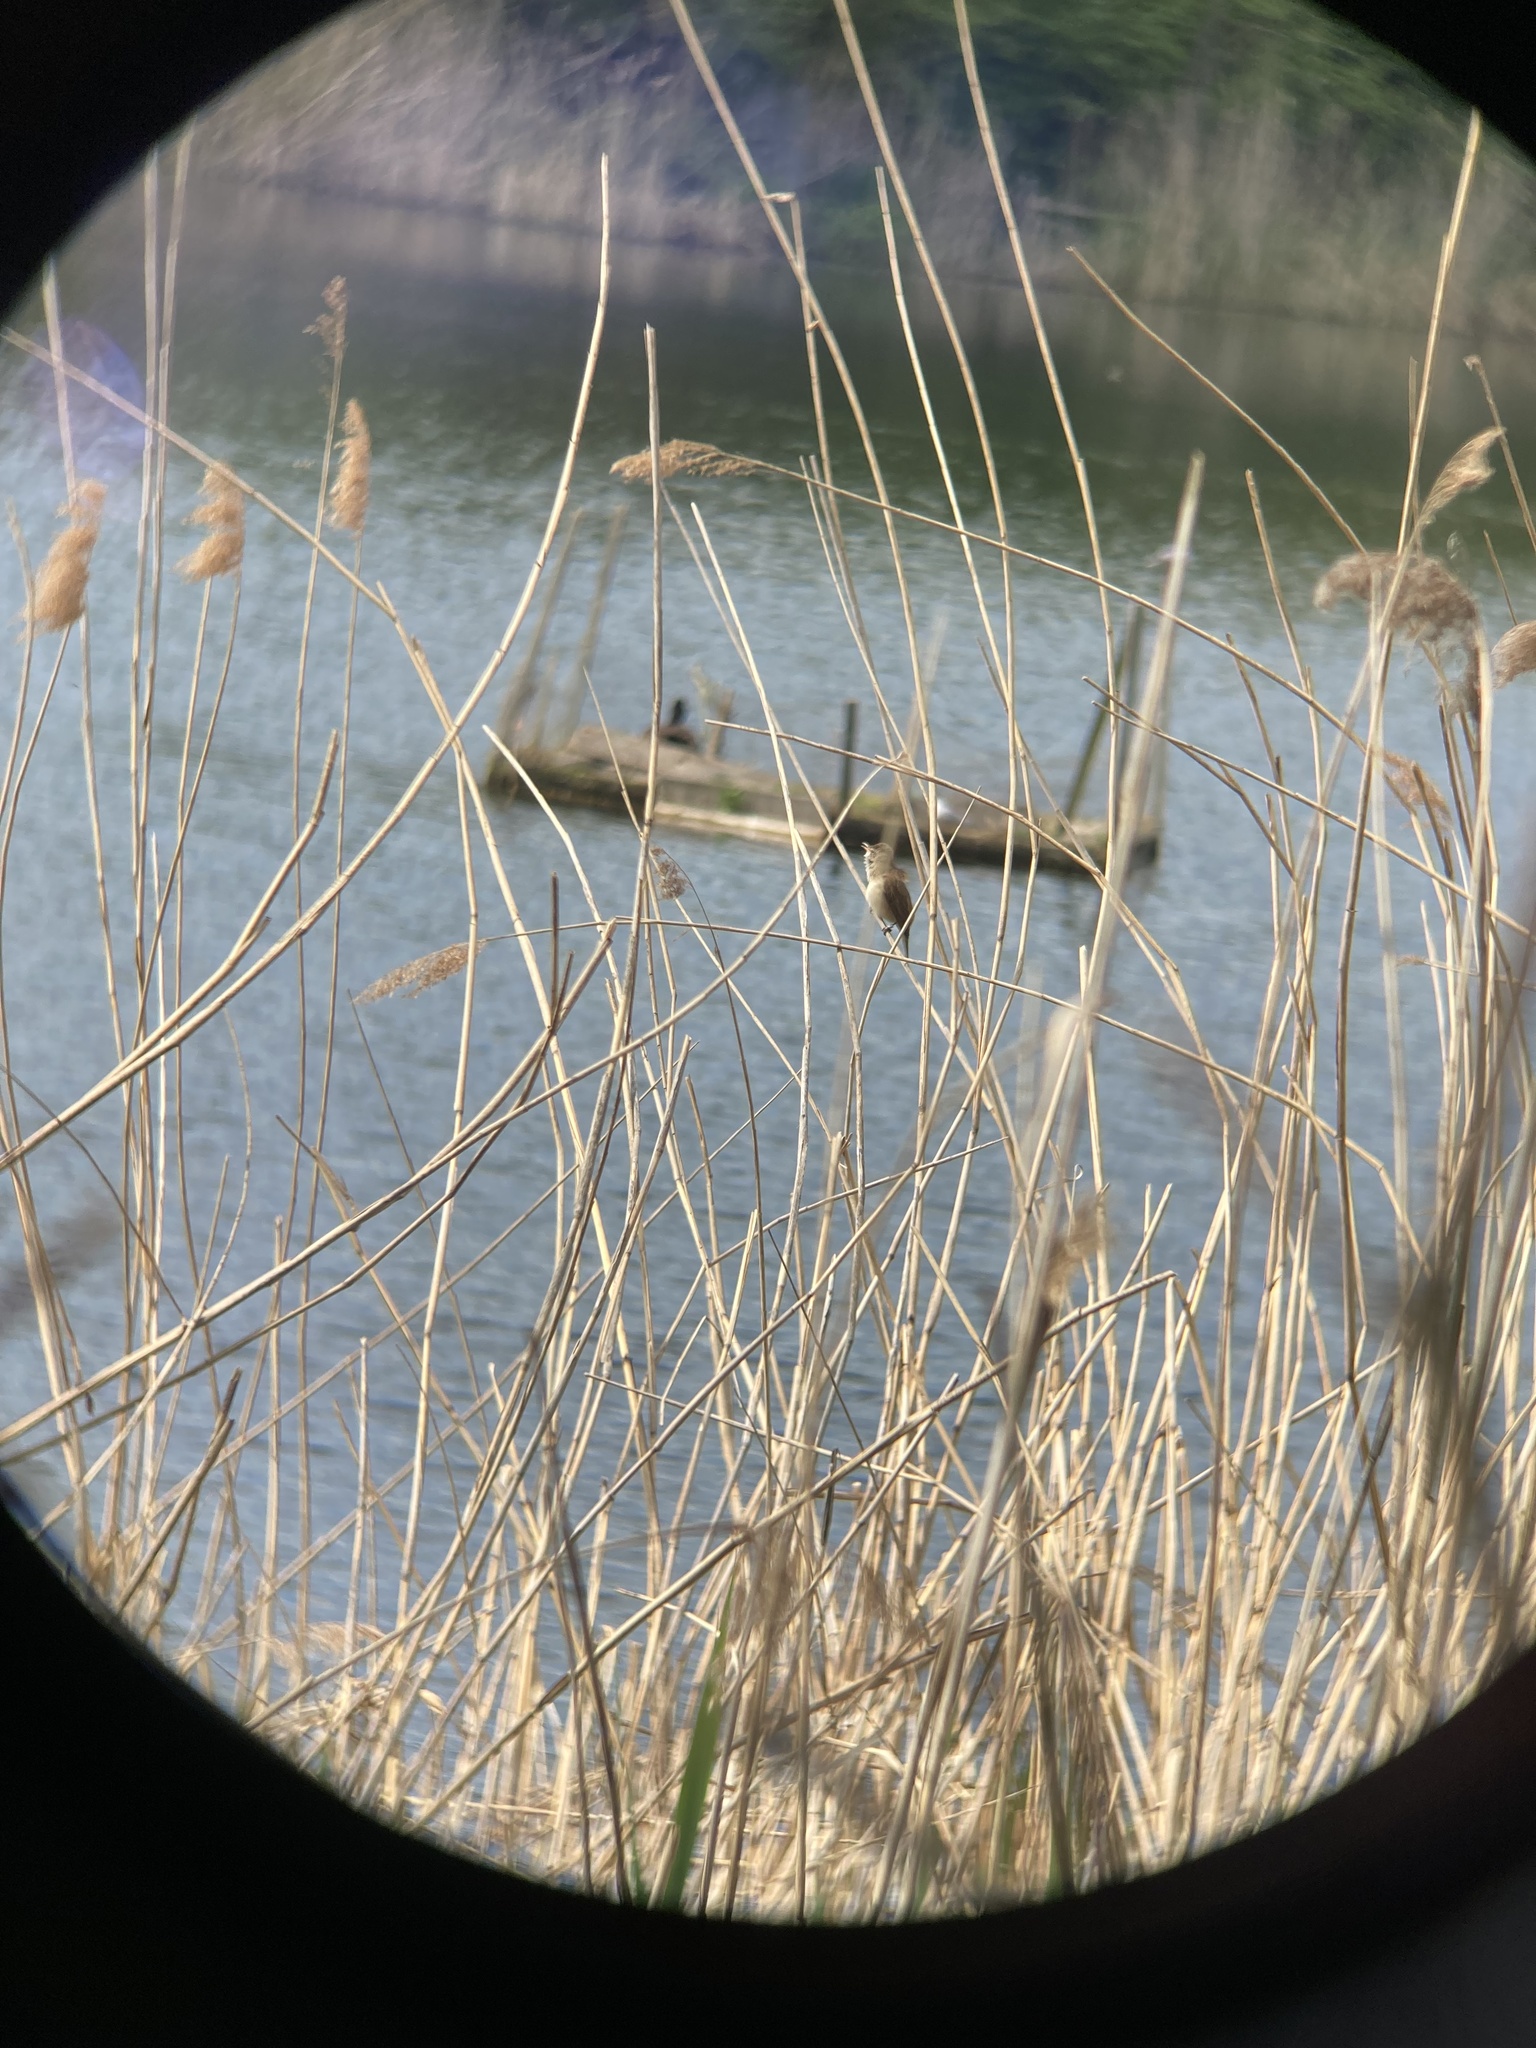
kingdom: Animalia
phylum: Chordata
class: Aves
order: Passeriformes
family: Acrocephalidae
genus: Acrocephalus
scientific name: Acrocephalus arundinaceus
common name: Great reed warbler
